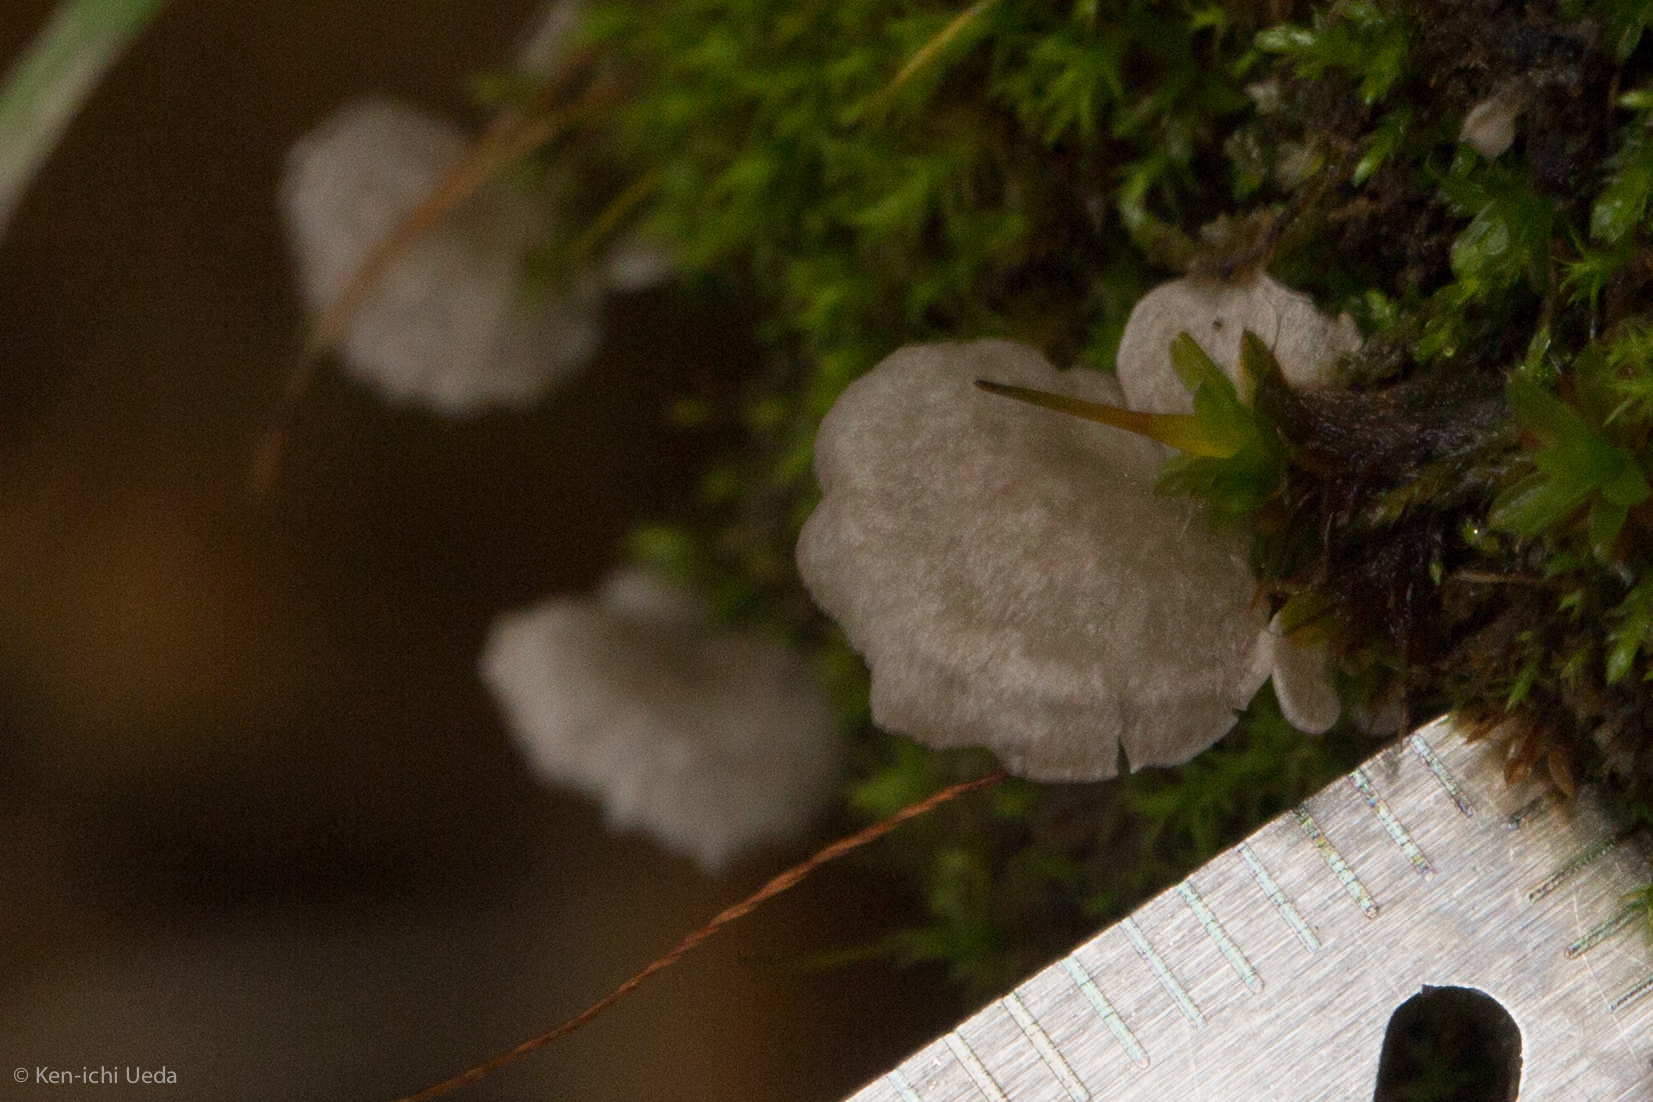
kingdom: Fungi
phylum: Basidiomycota
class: Agaricomycetes
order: Agaricales
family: Hygrophoraceae
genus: Arrhenia
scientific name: Arrhenia retiruga
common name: Small moss oysterling
